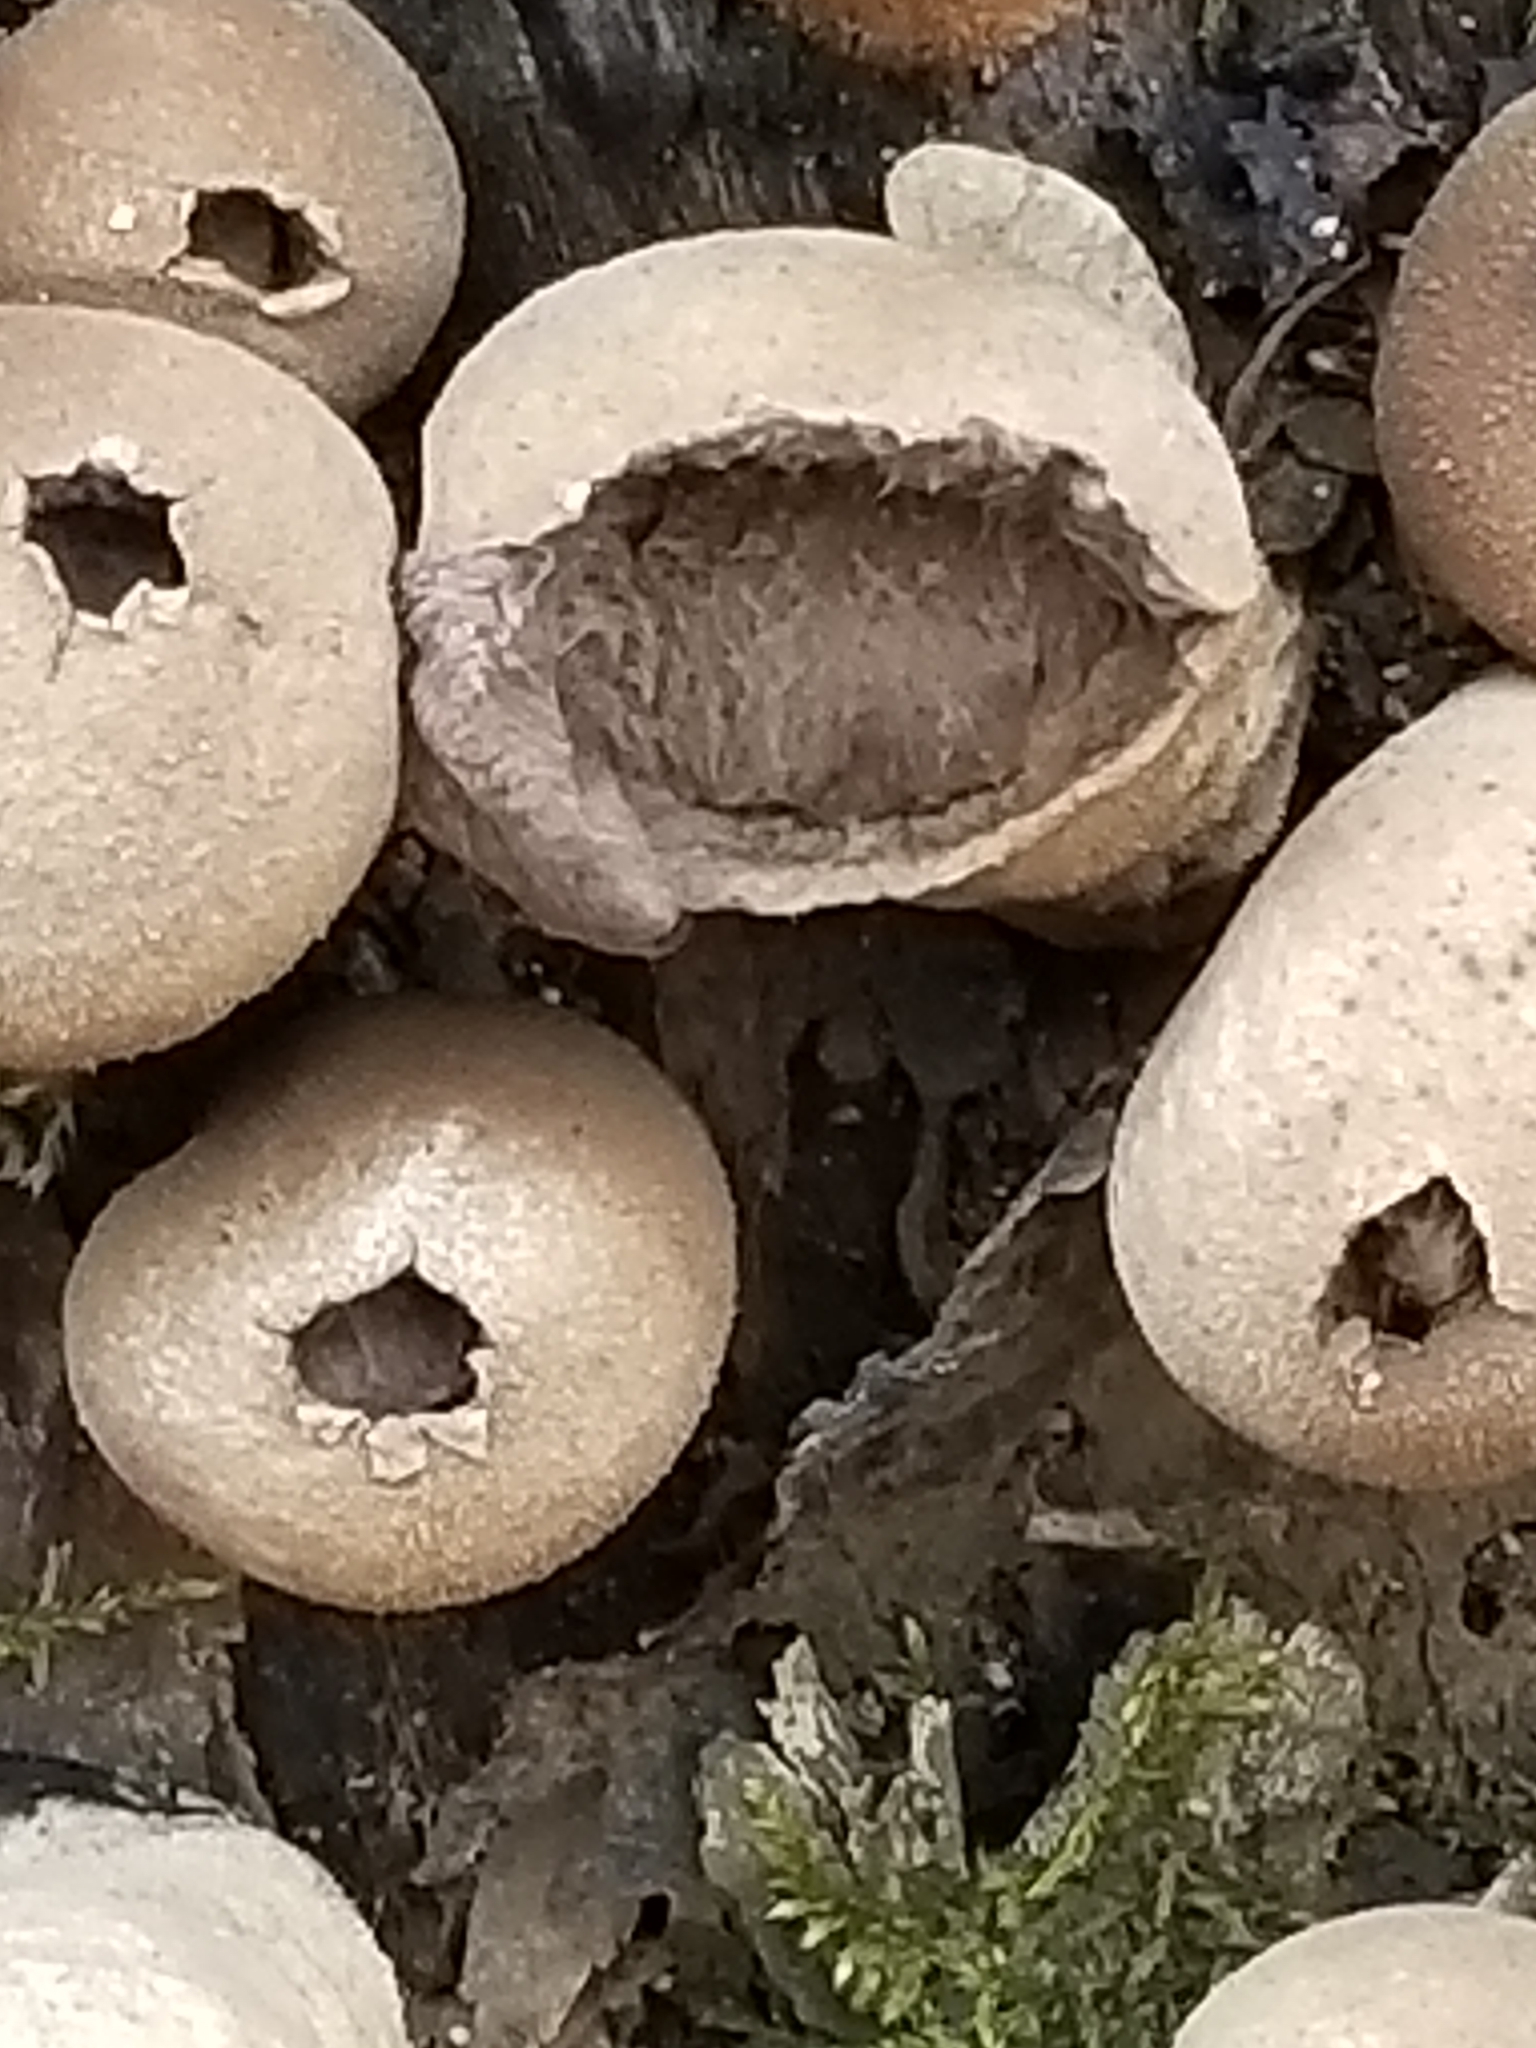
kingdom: Fungi
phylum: Basidiomycota
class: Agaricomycetes
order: Agaricales
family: Lycoperdaceae
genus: Apioperdon
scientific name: Apioperdon pyriforme
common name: Pear-shaped puffball
